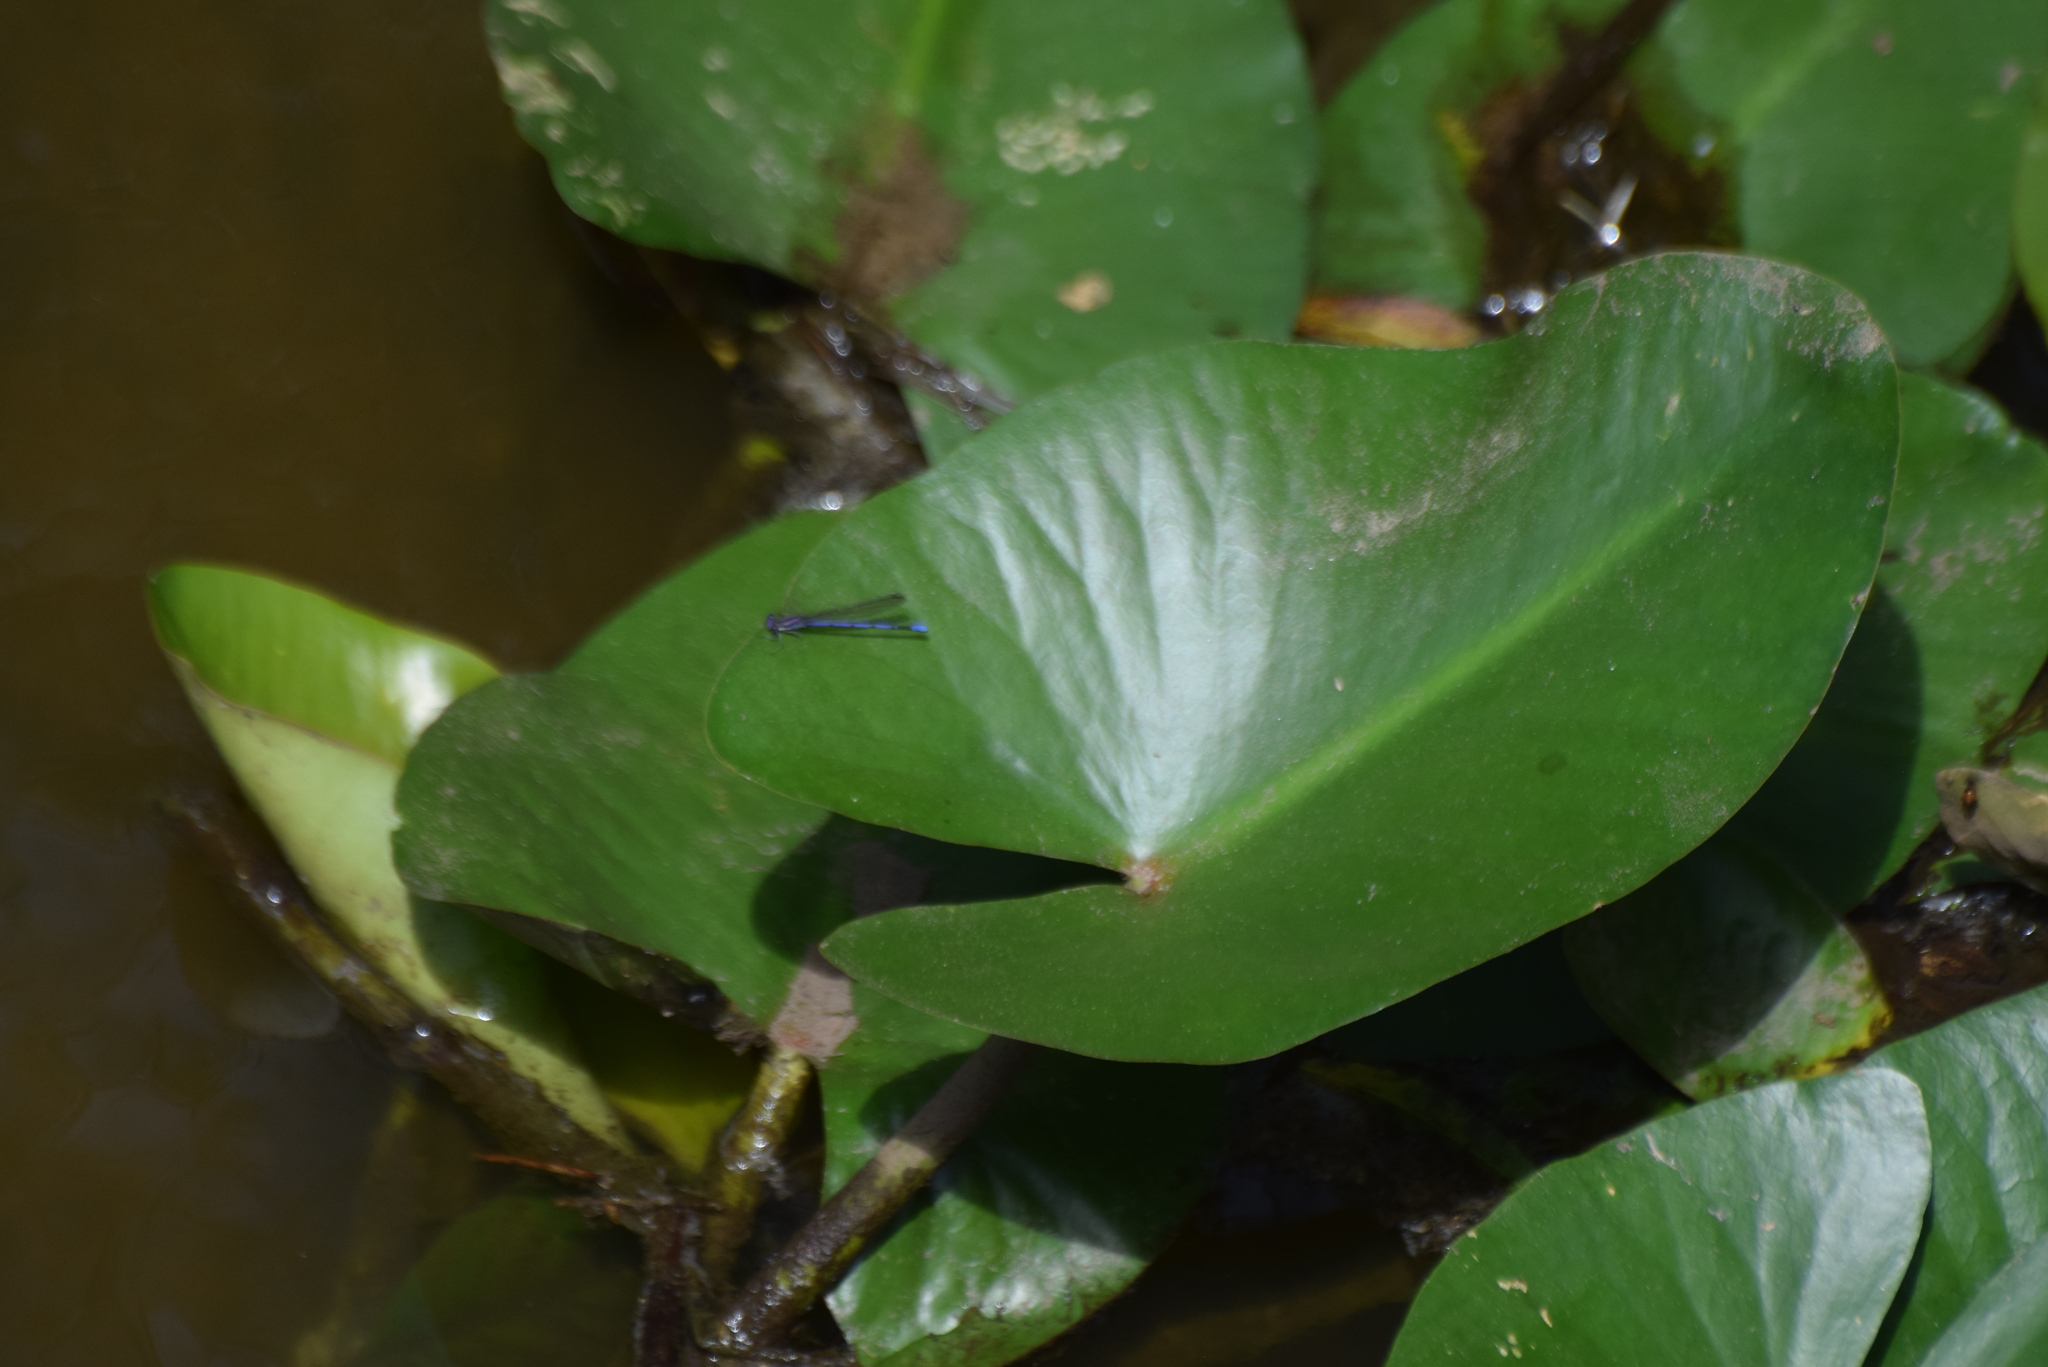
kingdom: Animalia
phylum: Arthropoda
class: Insecta
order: Odonata
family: Coenagrionidae
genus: Argia
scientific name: Argia fumipennis
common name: Variable dancer
